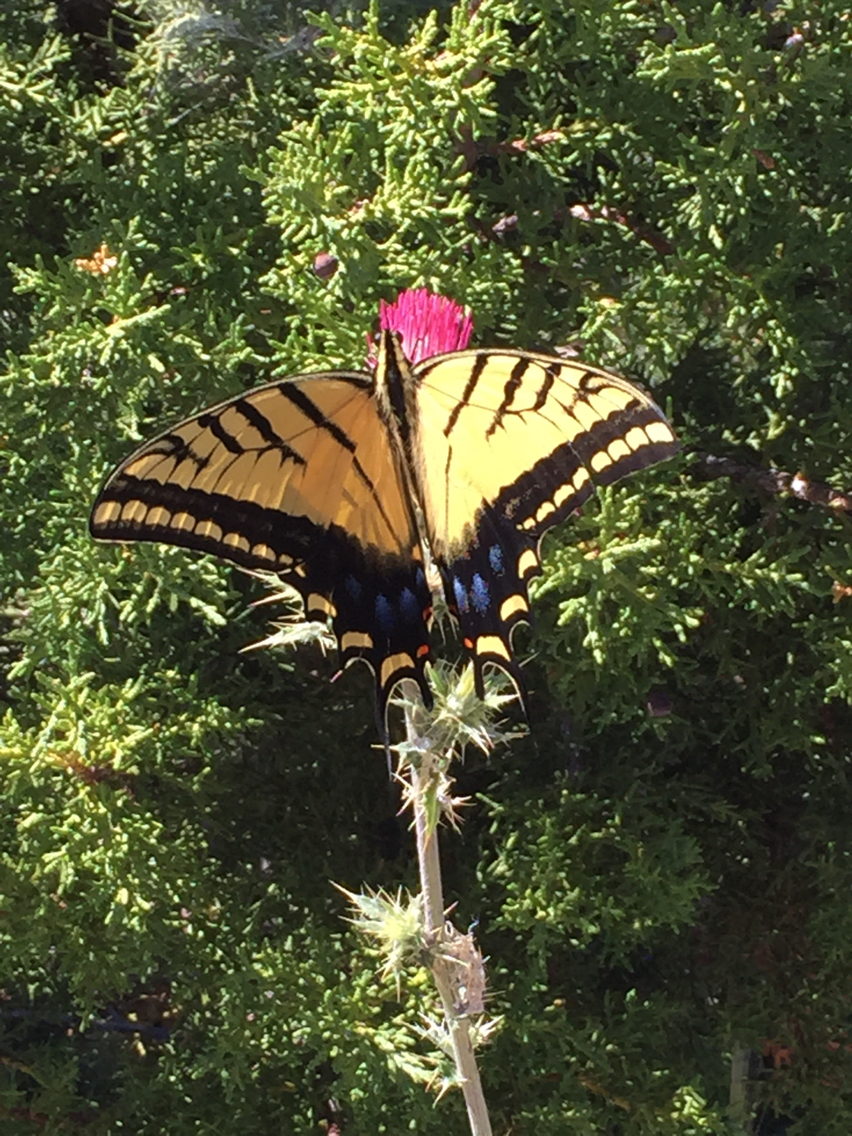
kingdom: Animalia
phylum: Arthropoda
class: Insecta
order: Lepidoptera
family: Papilionidae
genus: Papilio
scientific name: Papilio multicaudata
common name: Two-tailed tiger swallowtail
